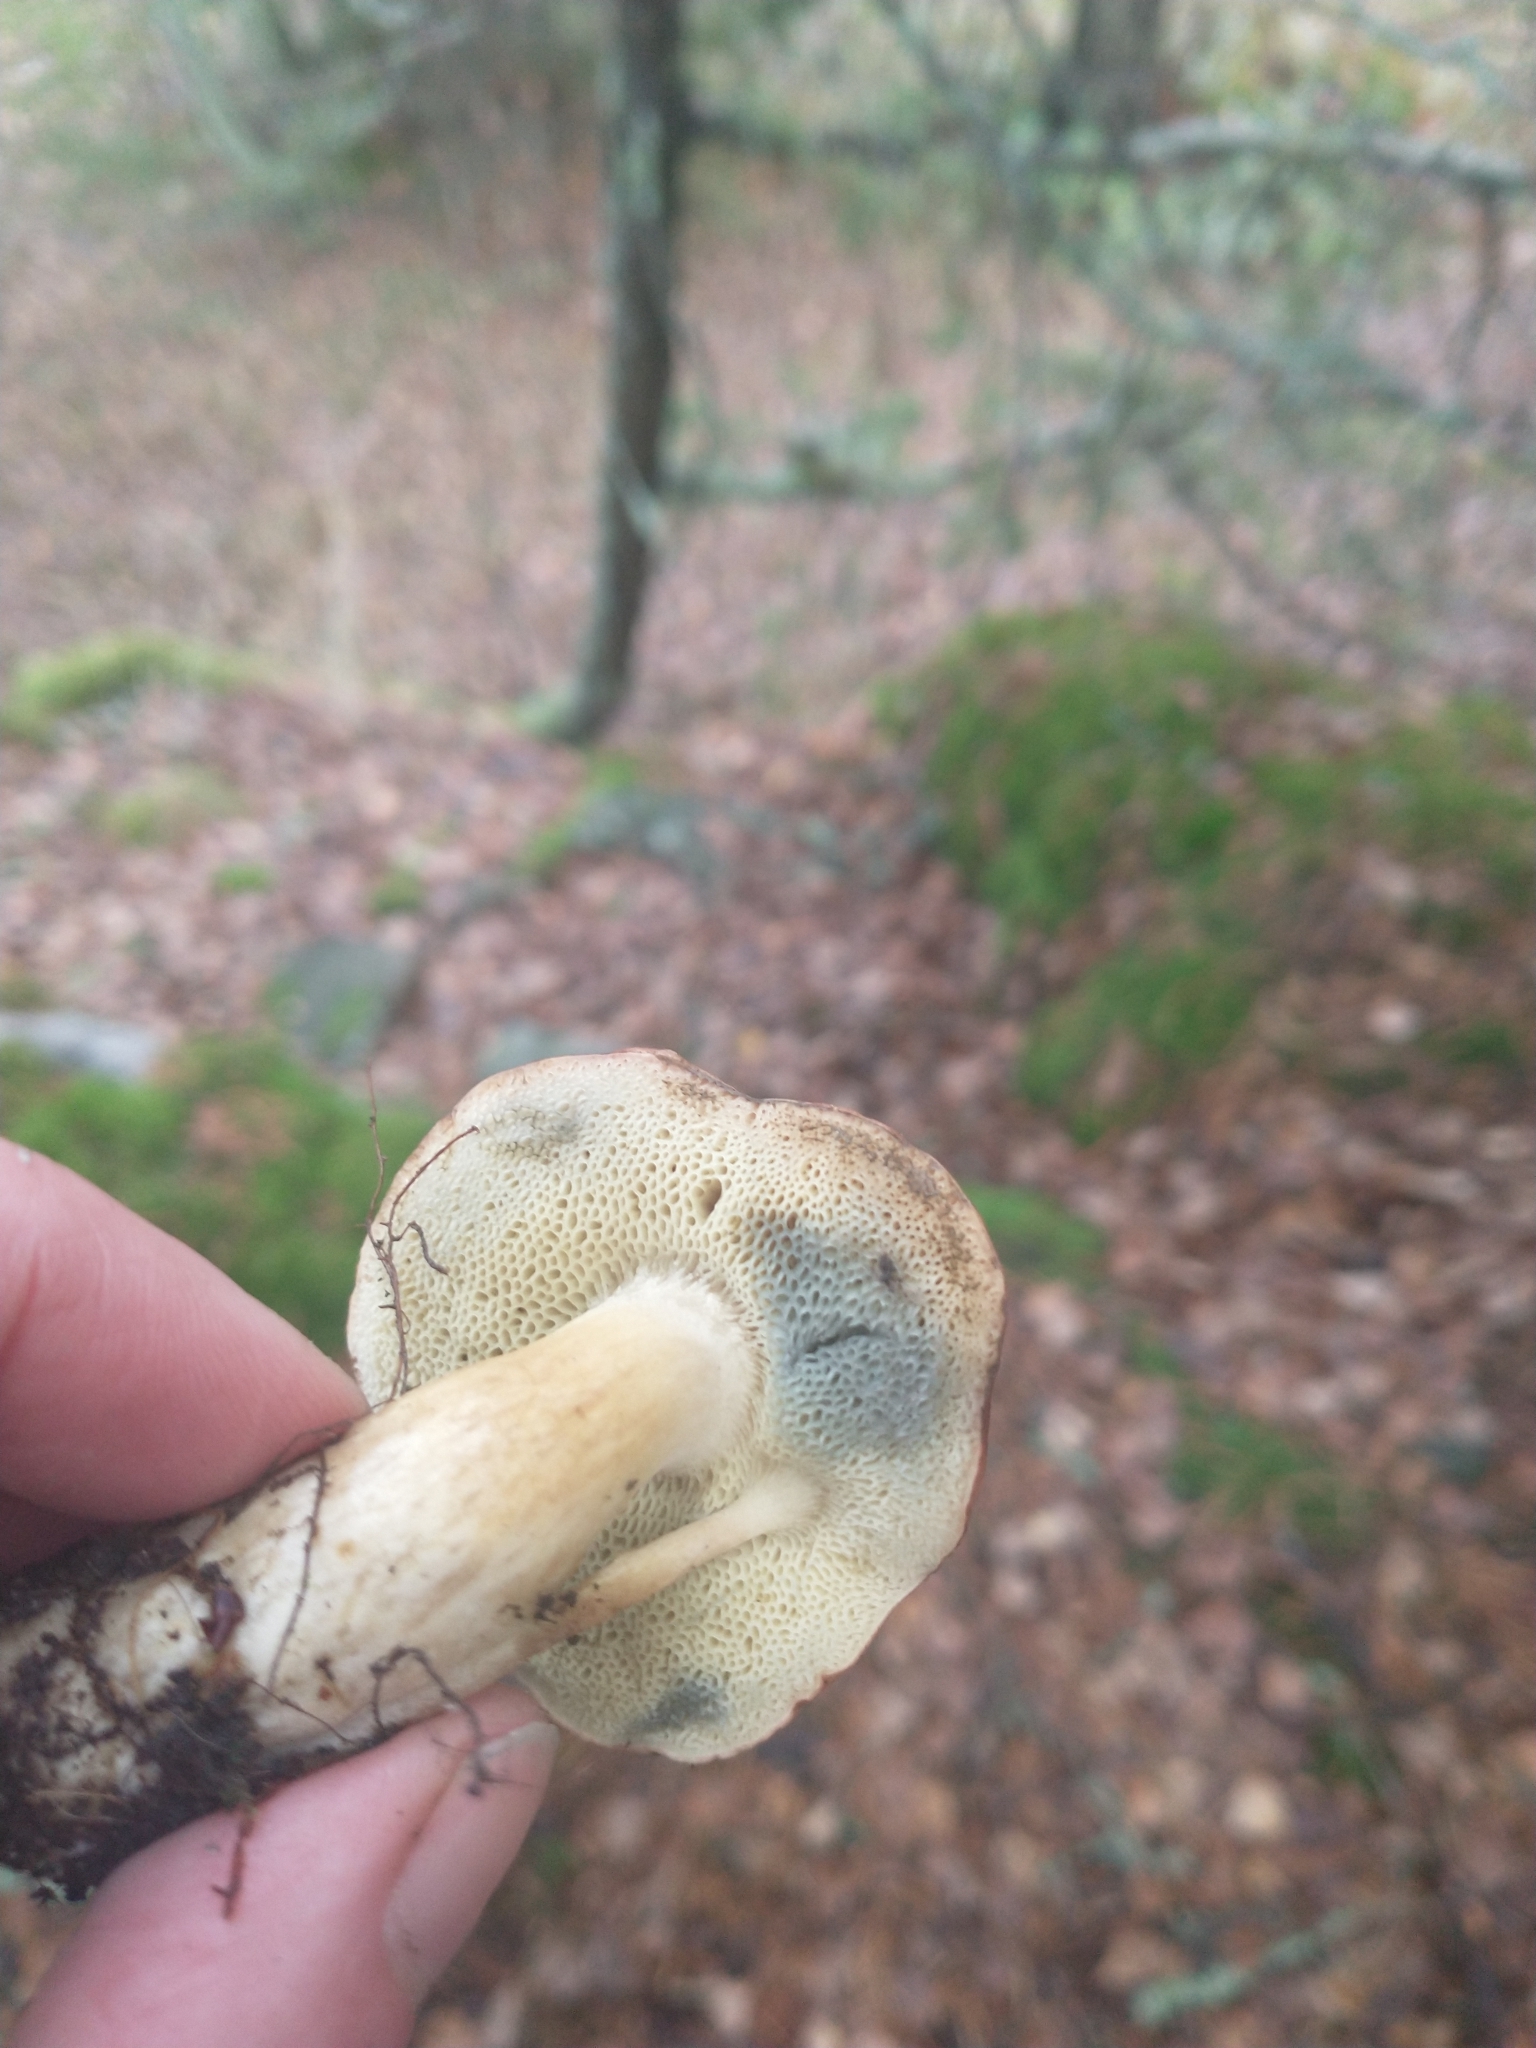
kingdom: Fungi
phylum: Basidiomycota
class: Agaricomycetes
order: Boletales
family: Boletaceae
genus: Imleria
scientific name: Imleria badia
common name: Bay bolete
